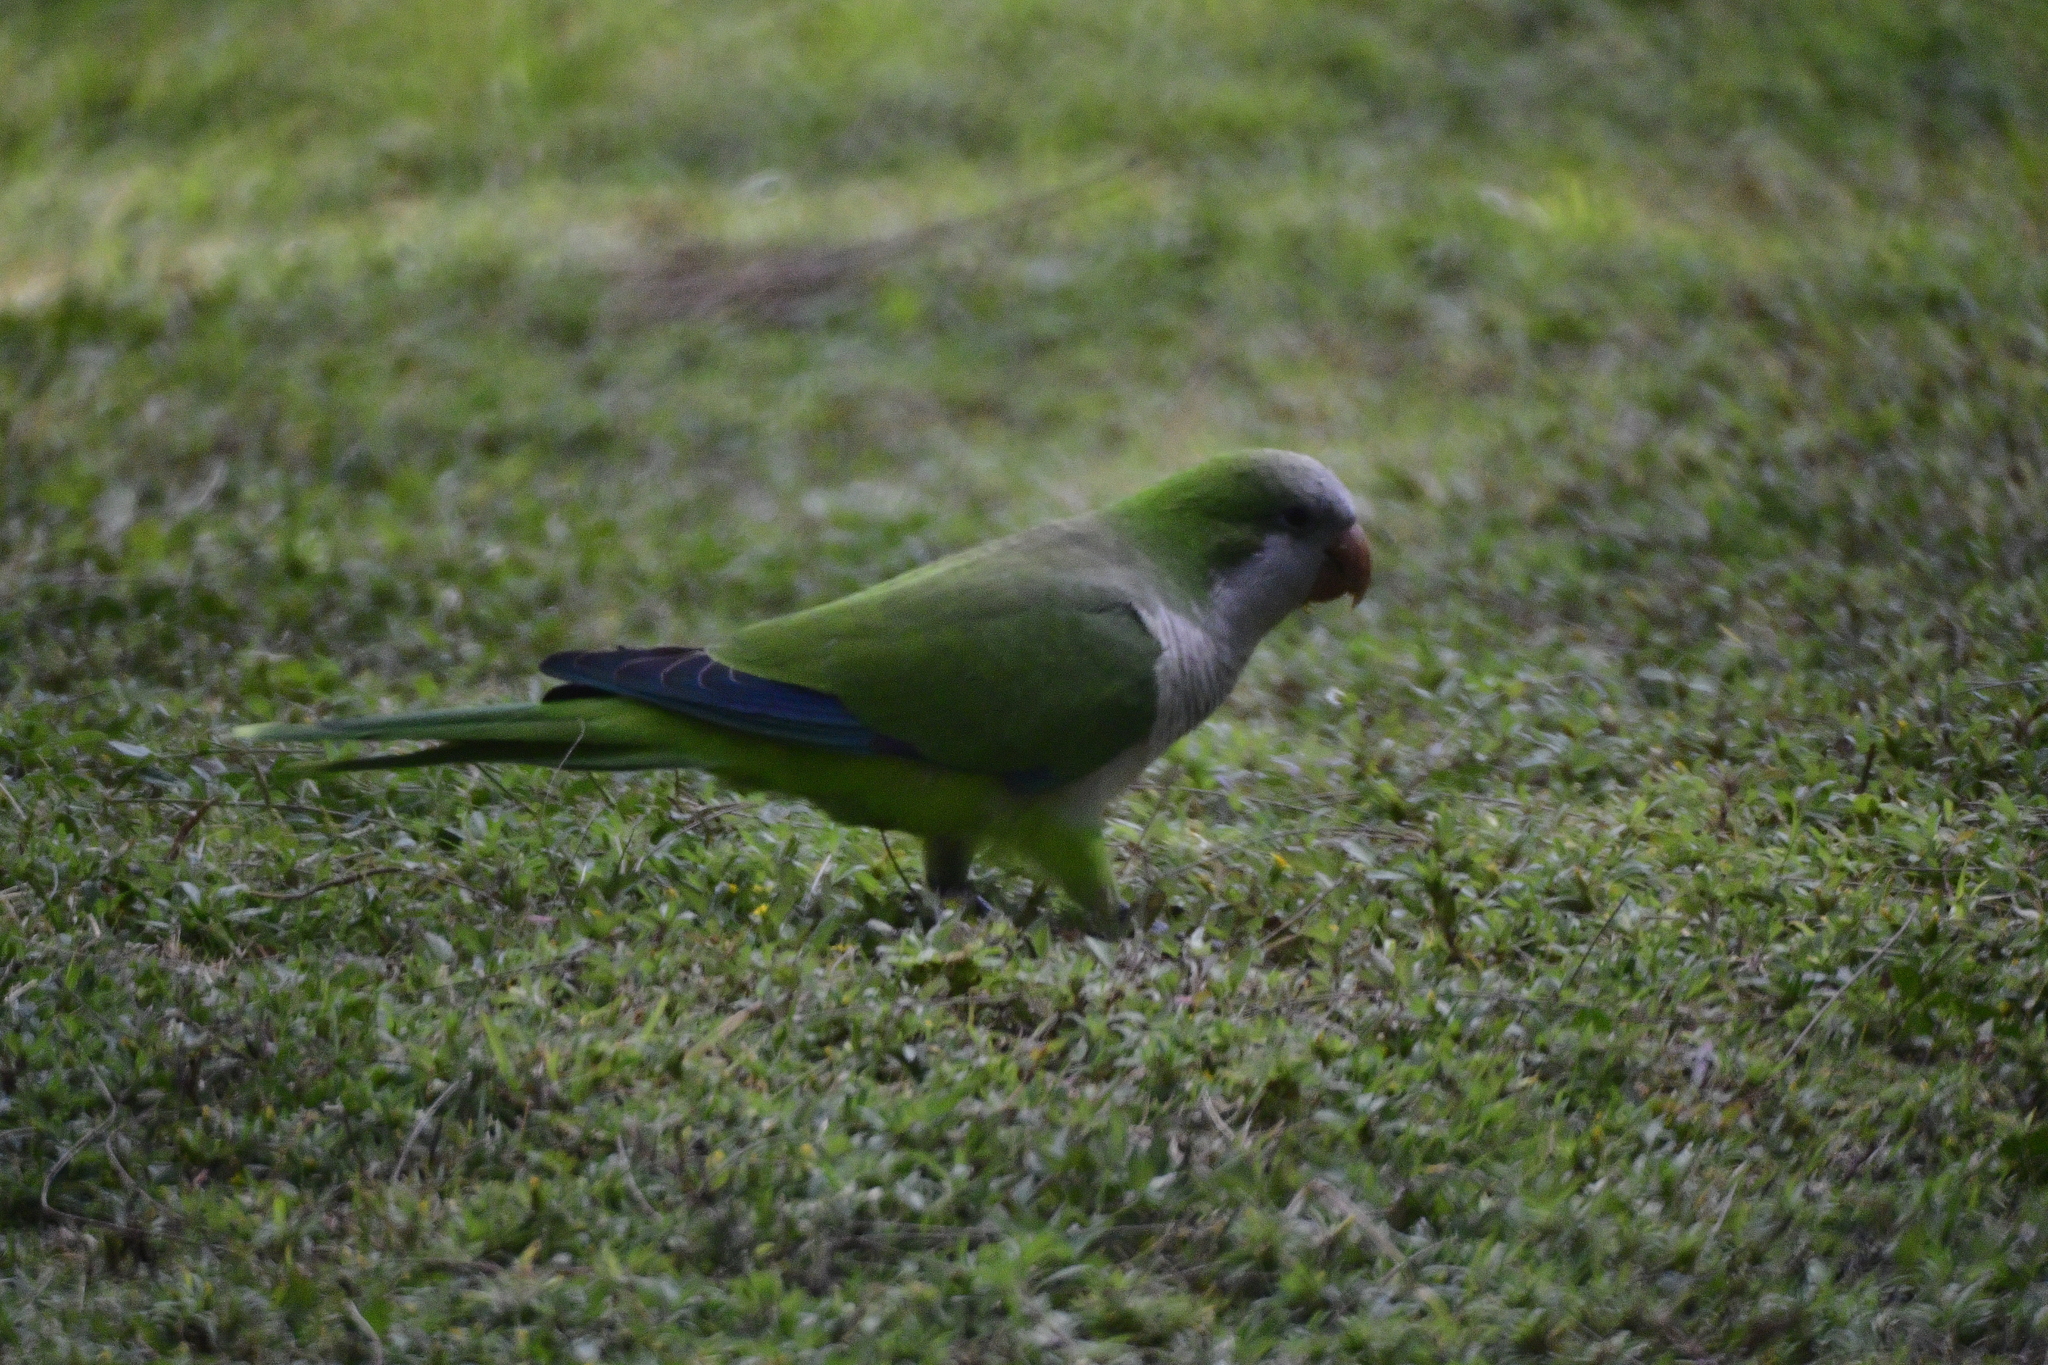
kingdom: Animalia
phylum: Chordata
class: Aves
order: Psittaciformes
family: Psittacidae
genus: Myiopsitta
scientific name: Myiopsitta monachus
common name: Monk parakeet
